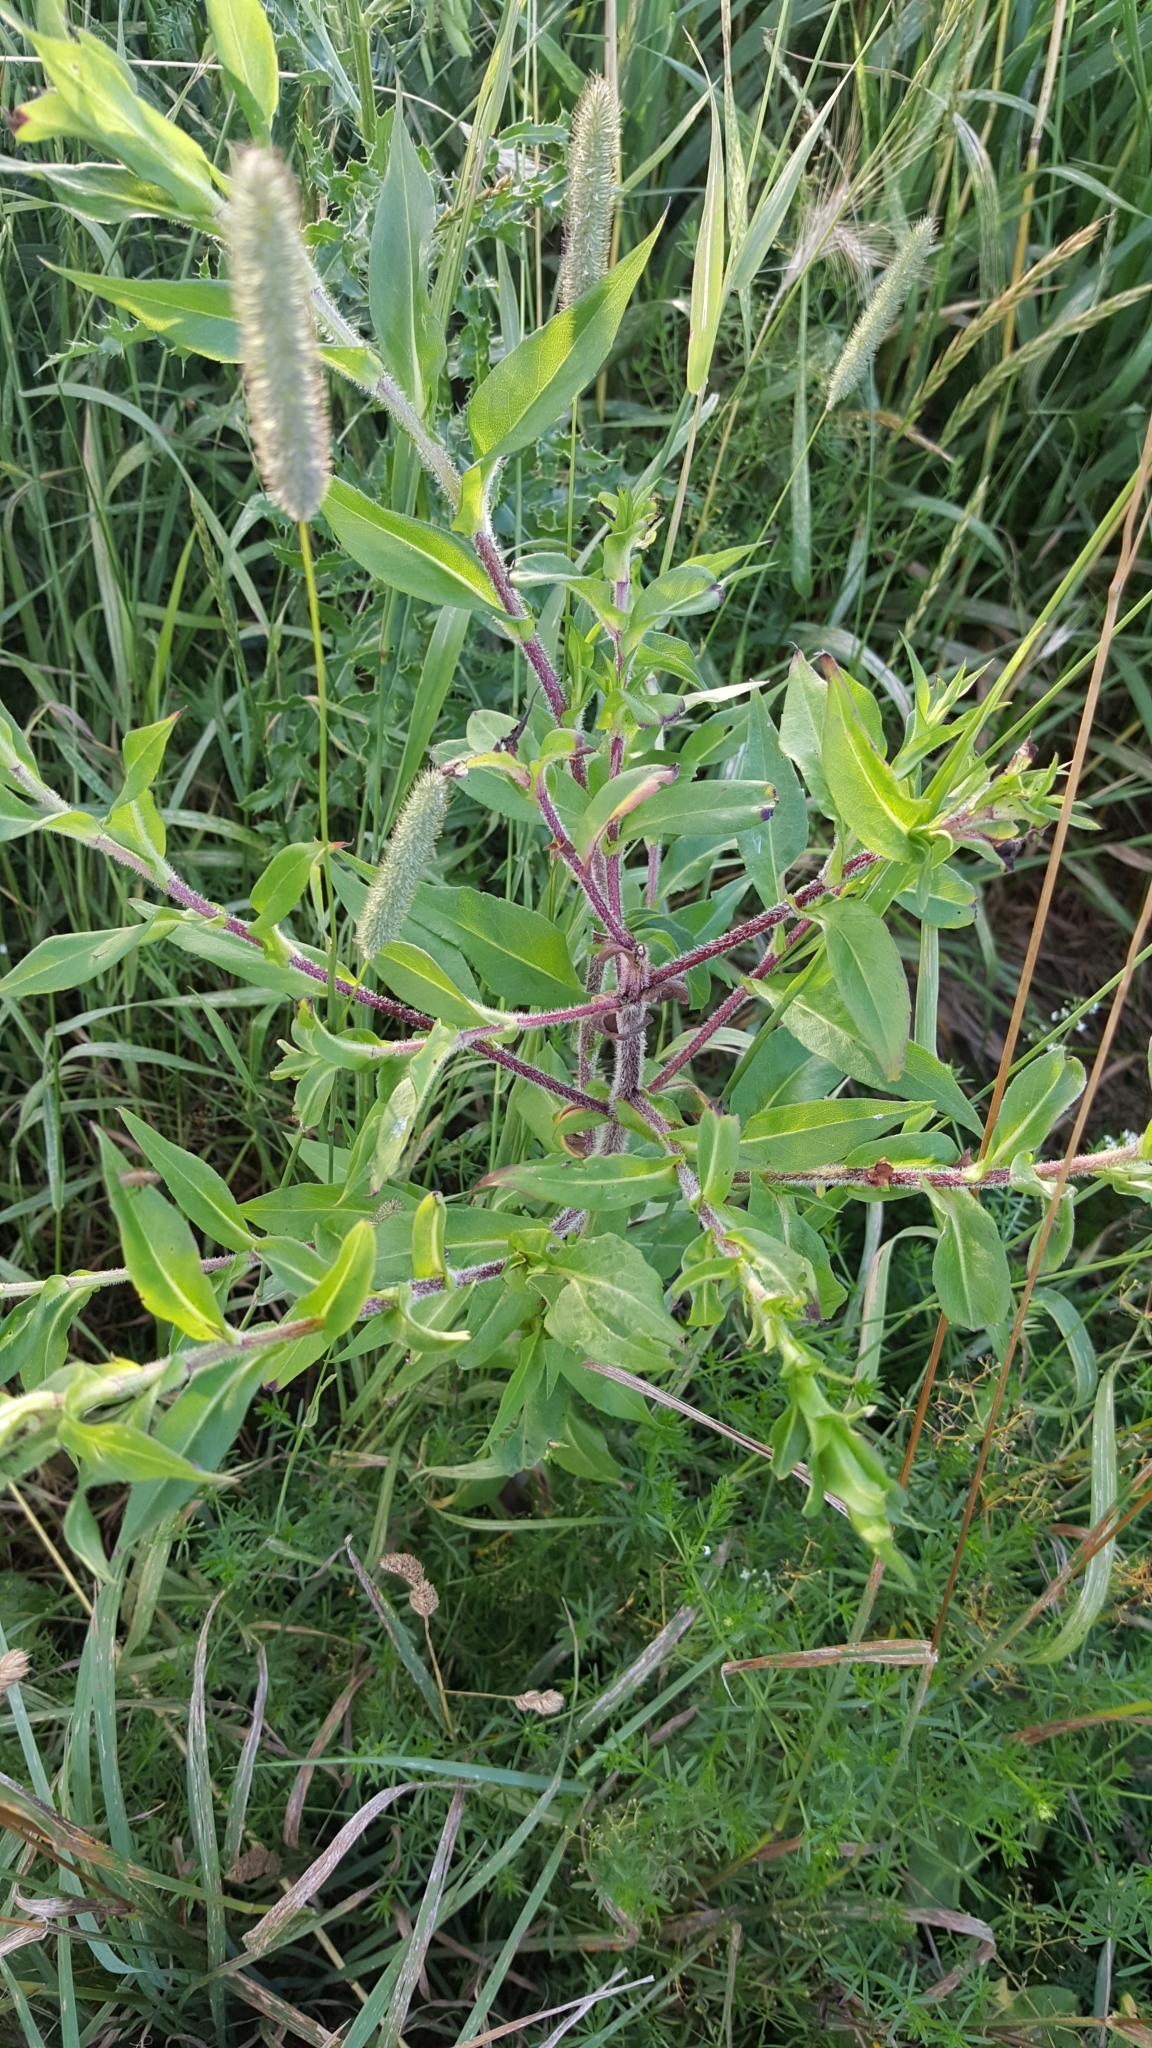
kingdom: Plantae
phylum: Tracheophyta
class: Magnoliopsida
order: Asterales
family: Asteraceae
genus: Symphyotrichum
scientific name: Symphyotrichum puniceum
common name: Bog aster
